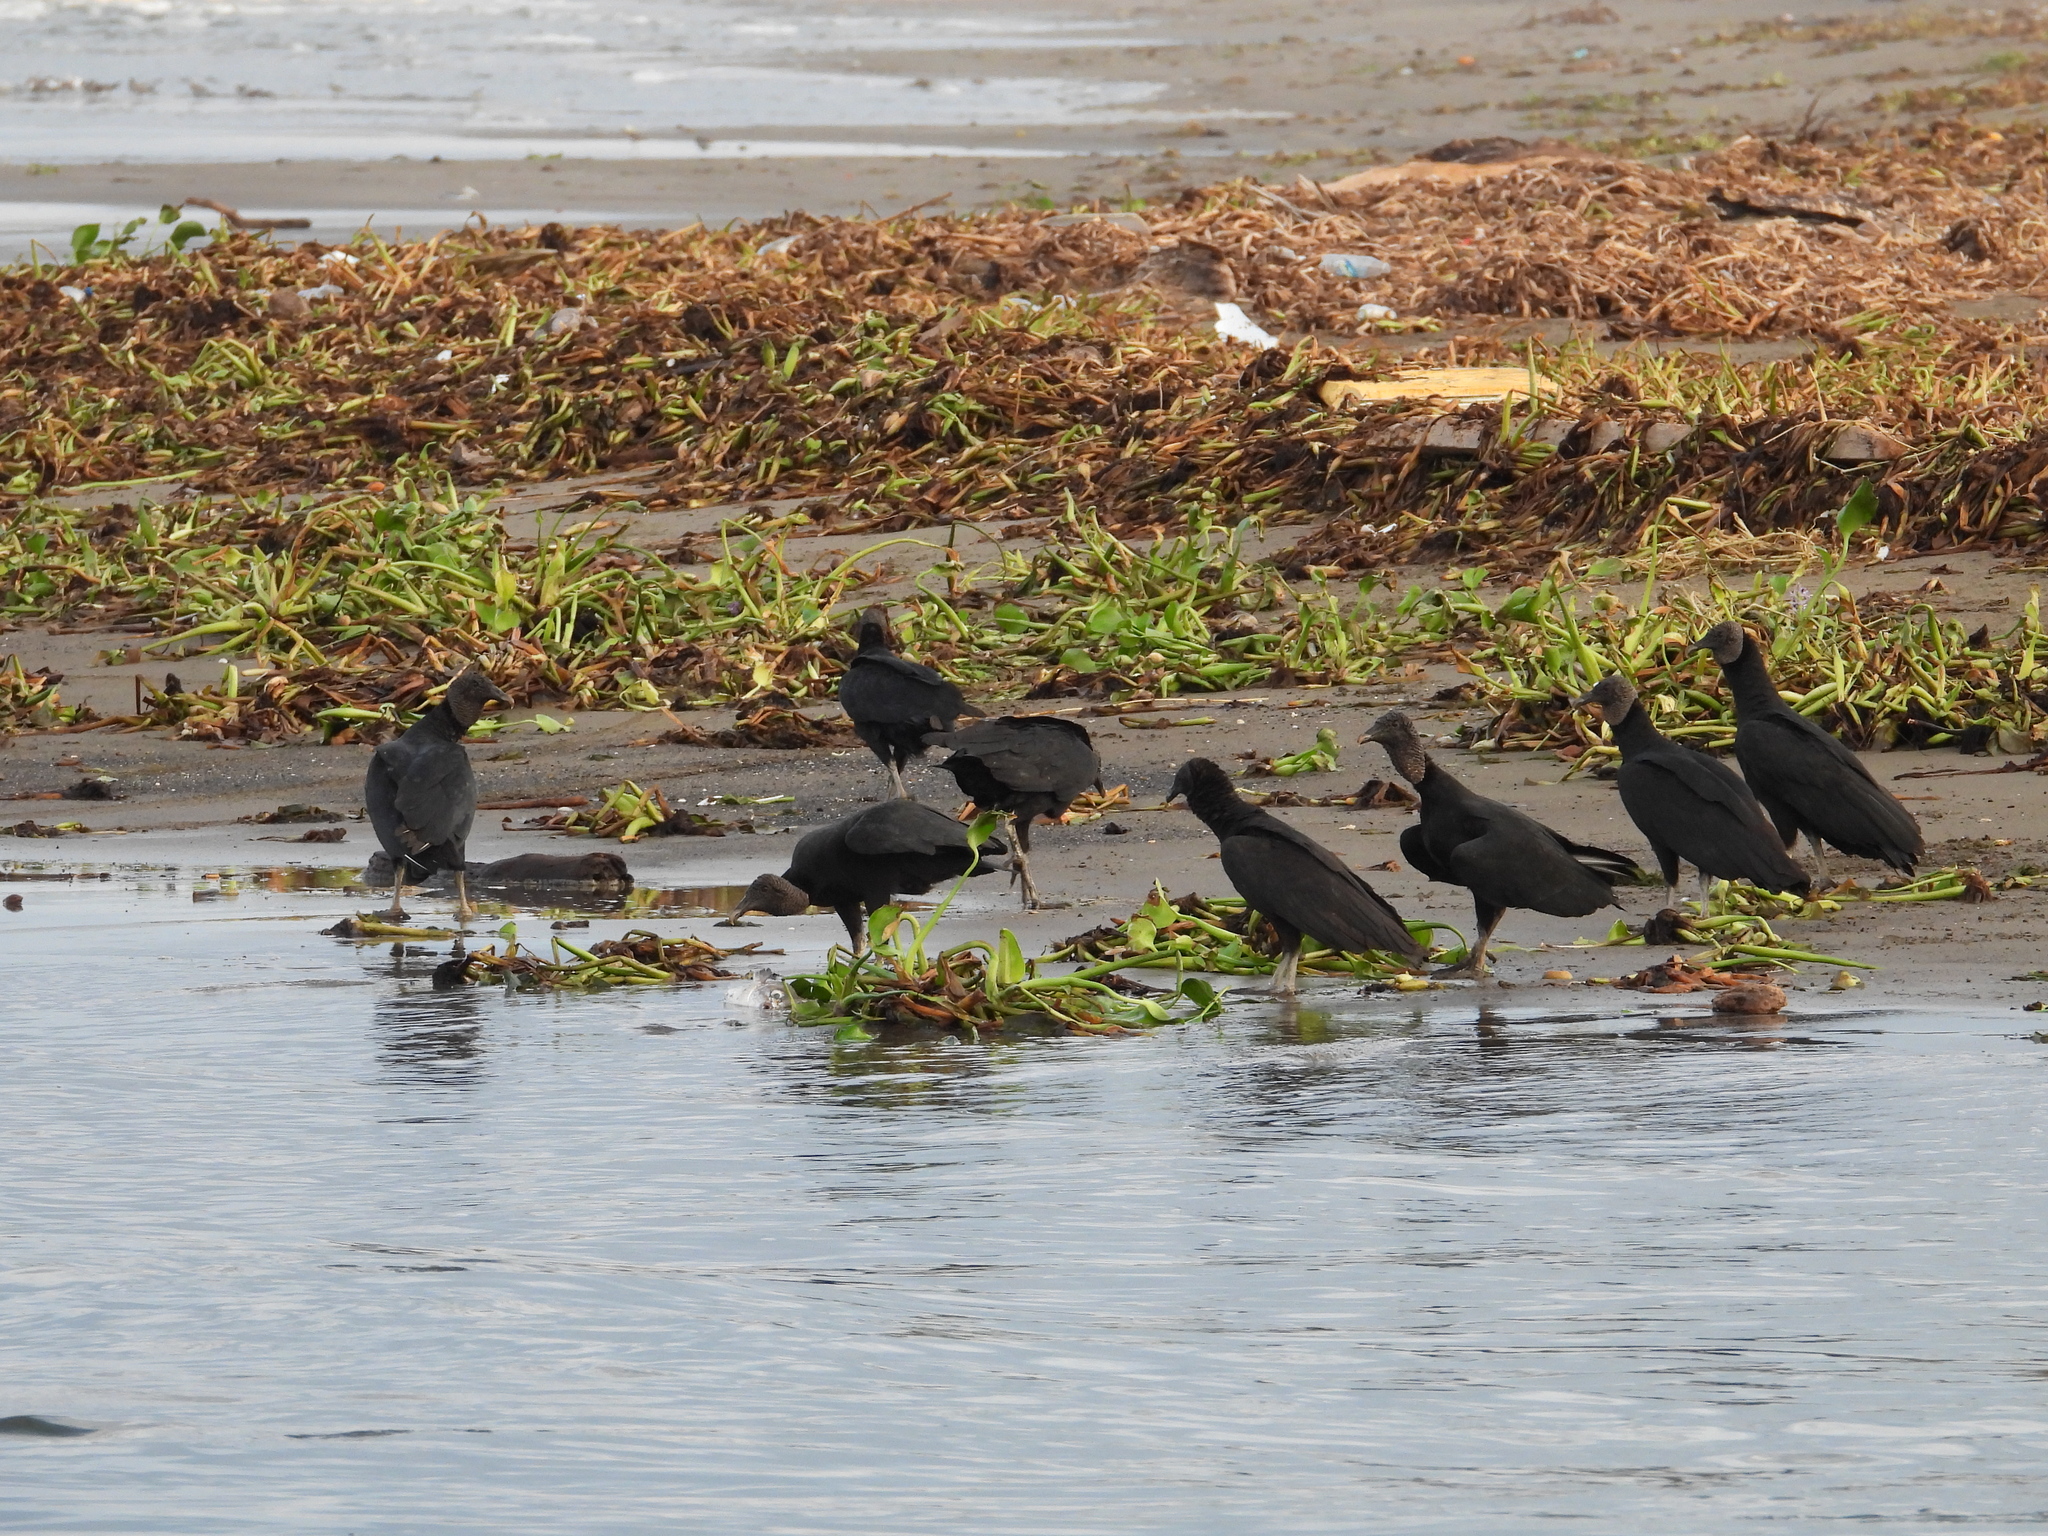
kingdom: Animalia
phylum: Chordata
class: Aves
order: Accipitriformes
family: Cathartidae
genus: Coragyps
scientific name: Coragyps atratus
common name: Black vulture
